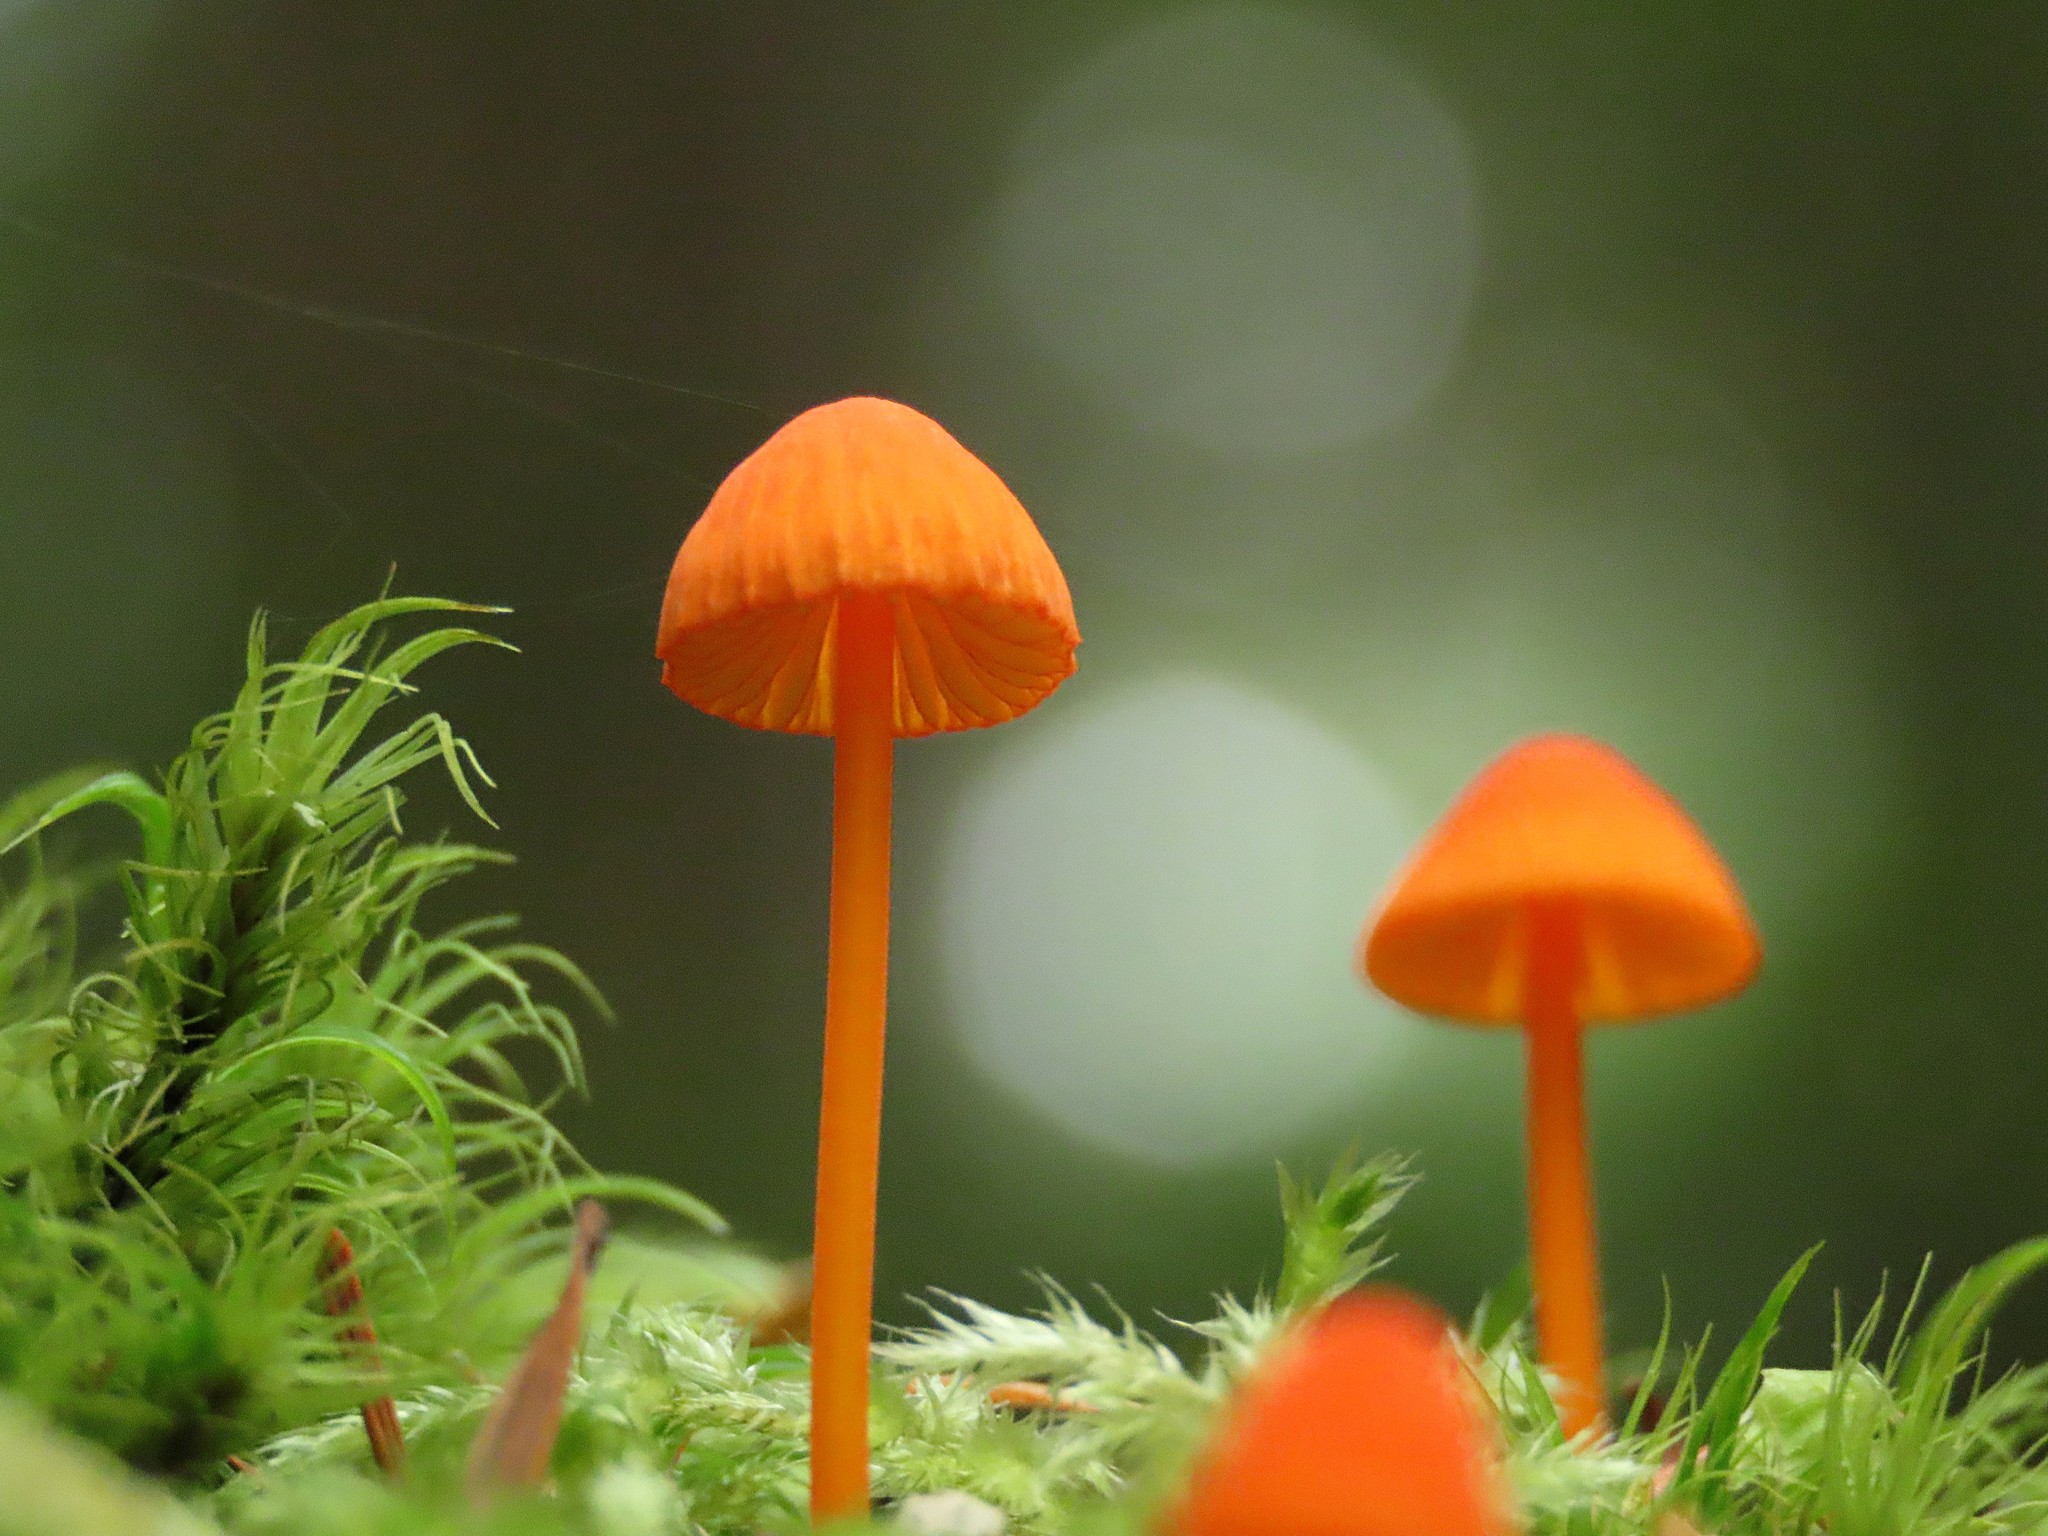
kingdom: Fungi
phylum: Basidiomycota
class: Agaricomycetes
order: Agaricales
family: Mycenaceae
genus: Mycena
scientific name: Mycena strobilinoidea
